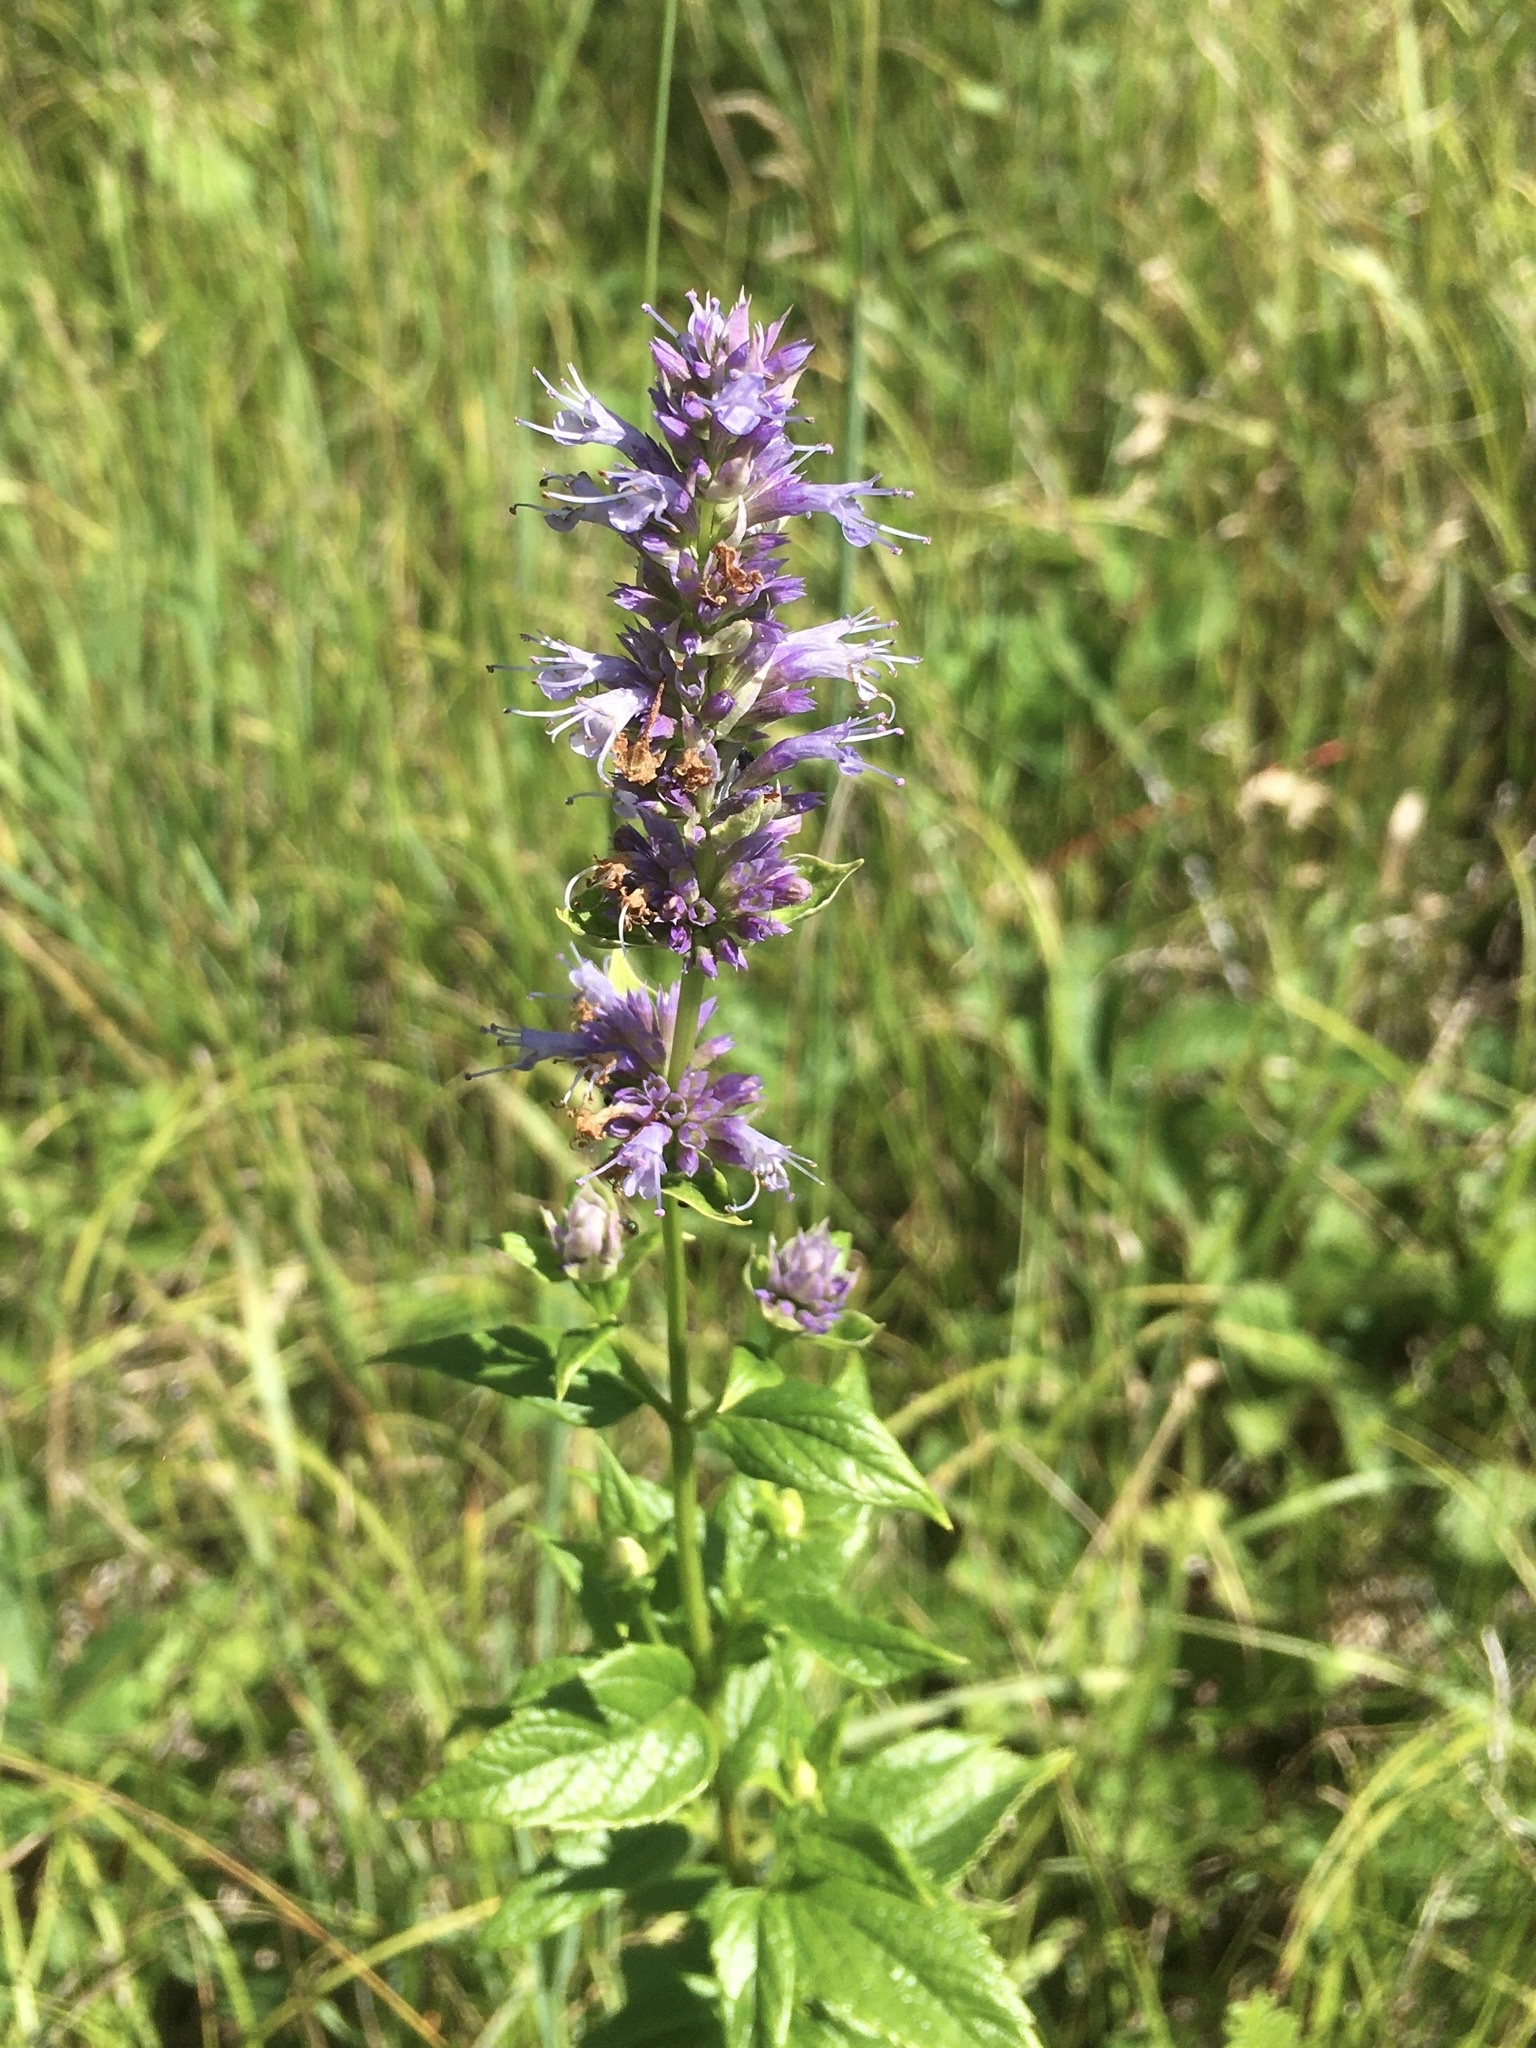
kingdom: Plantae
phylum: Tracheophyta
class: Magnoliopsida
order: Lamiales
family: Lamiaceae
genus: Agastache
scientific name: Agastache foeniculum
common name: Anise hyssop
